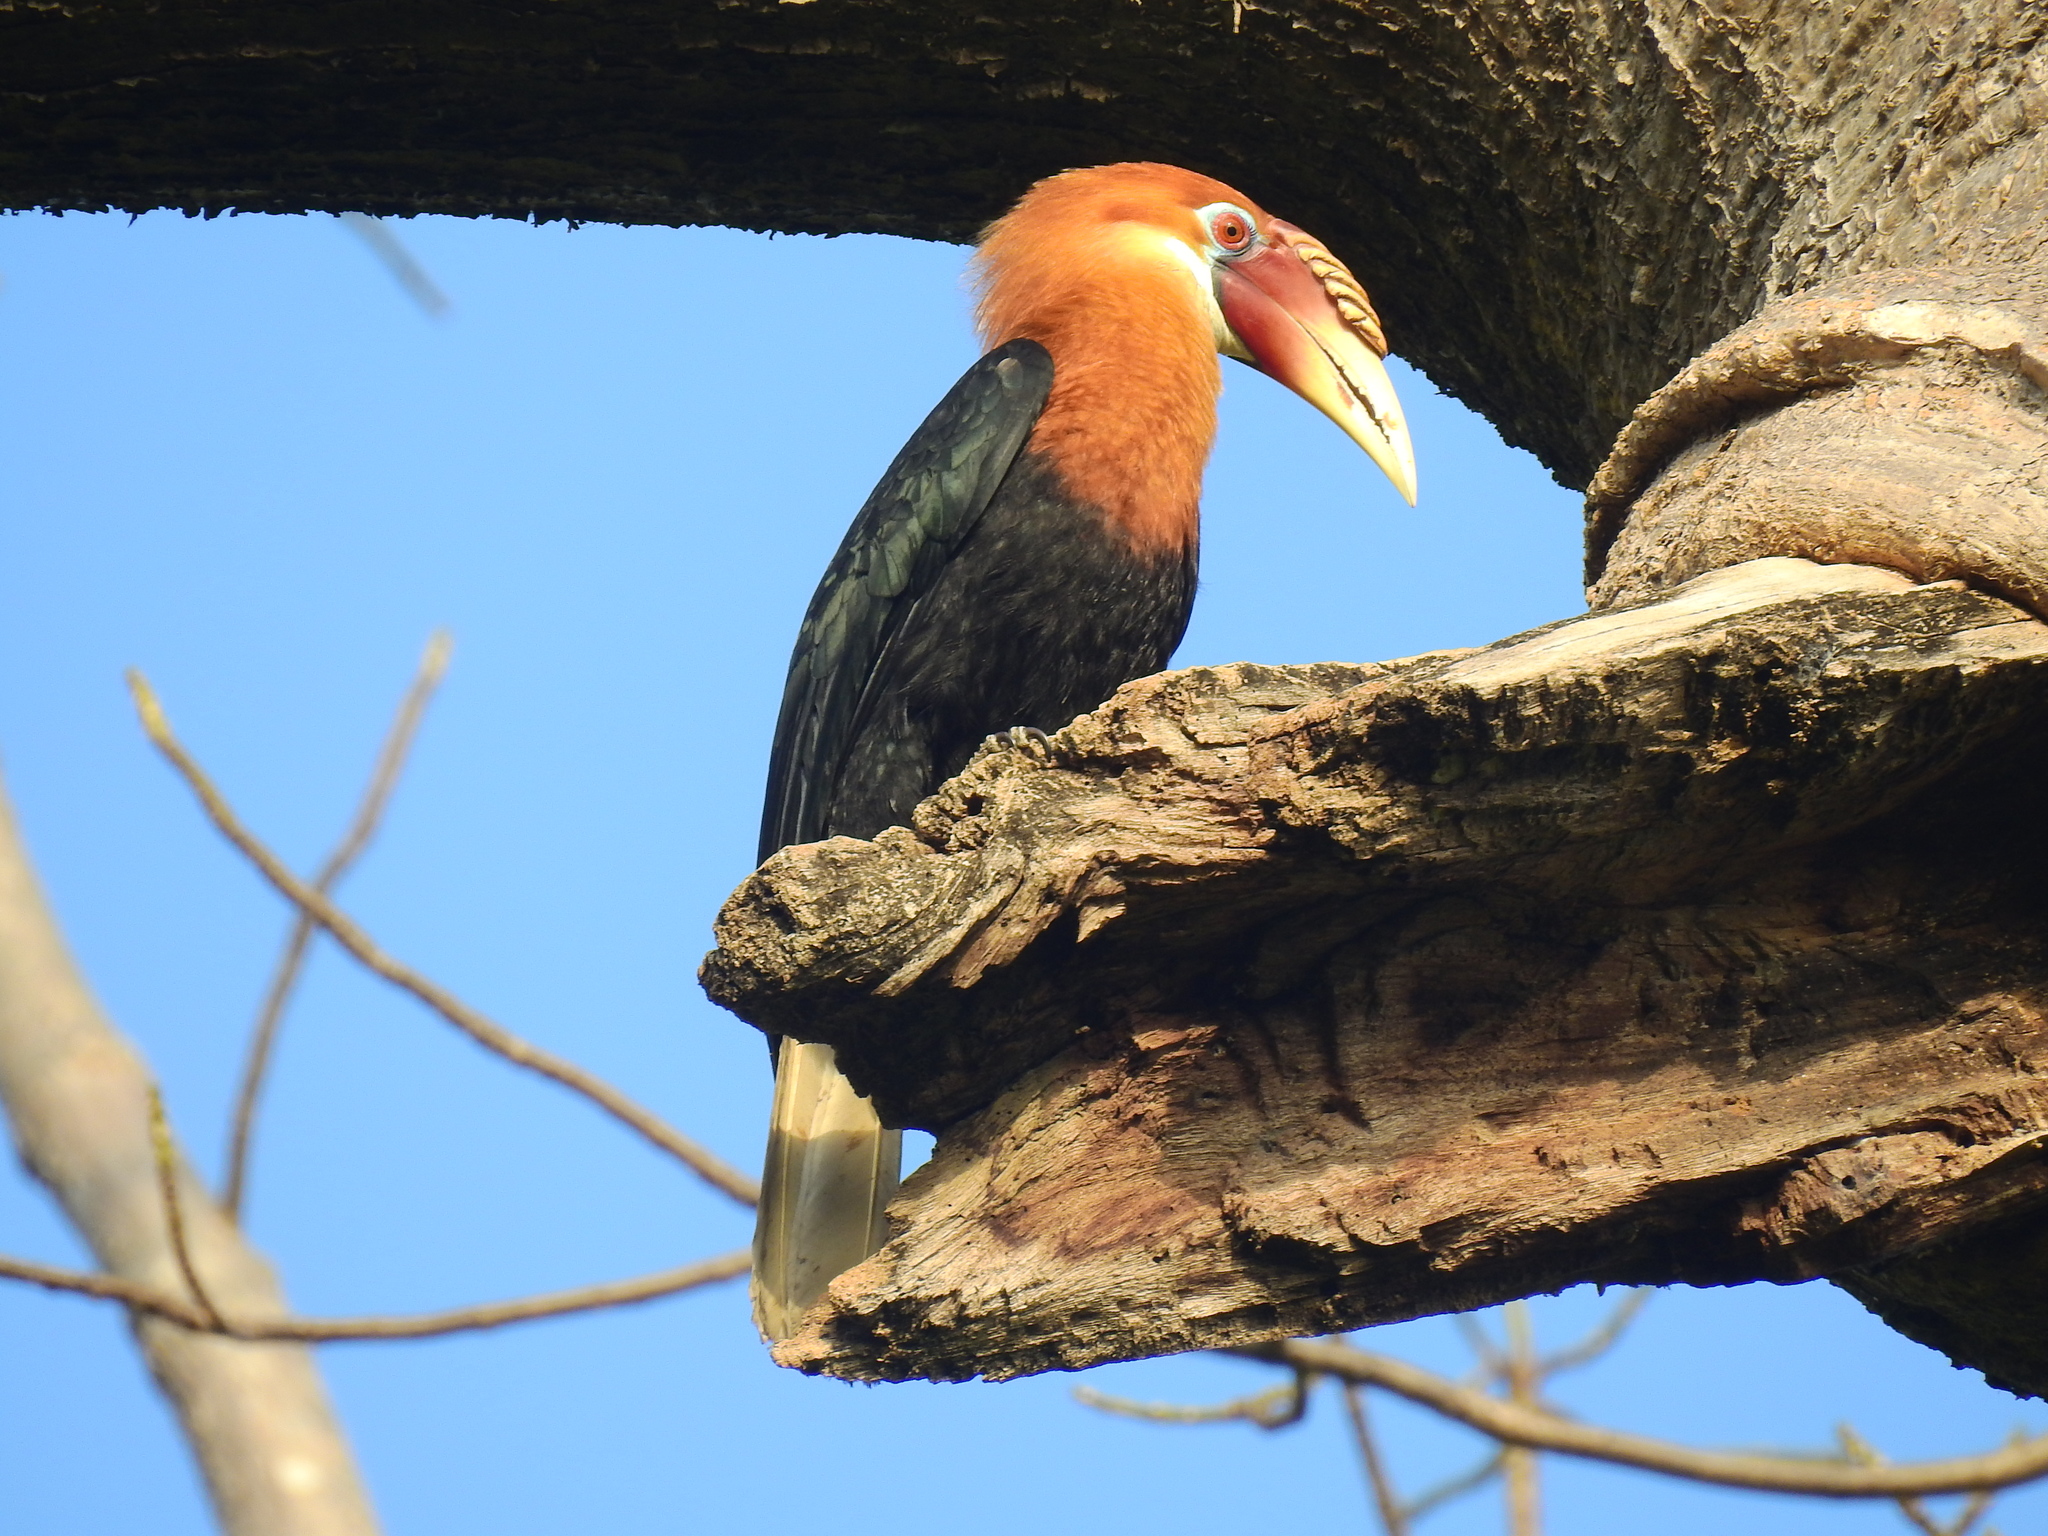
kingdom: Animalia
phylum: Chordata
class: Aves
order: Bucerotiformes
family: Bucerotidae
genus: Rhyticeros
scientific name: Rhyticeros narcondami
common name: Narcondam hornbill
